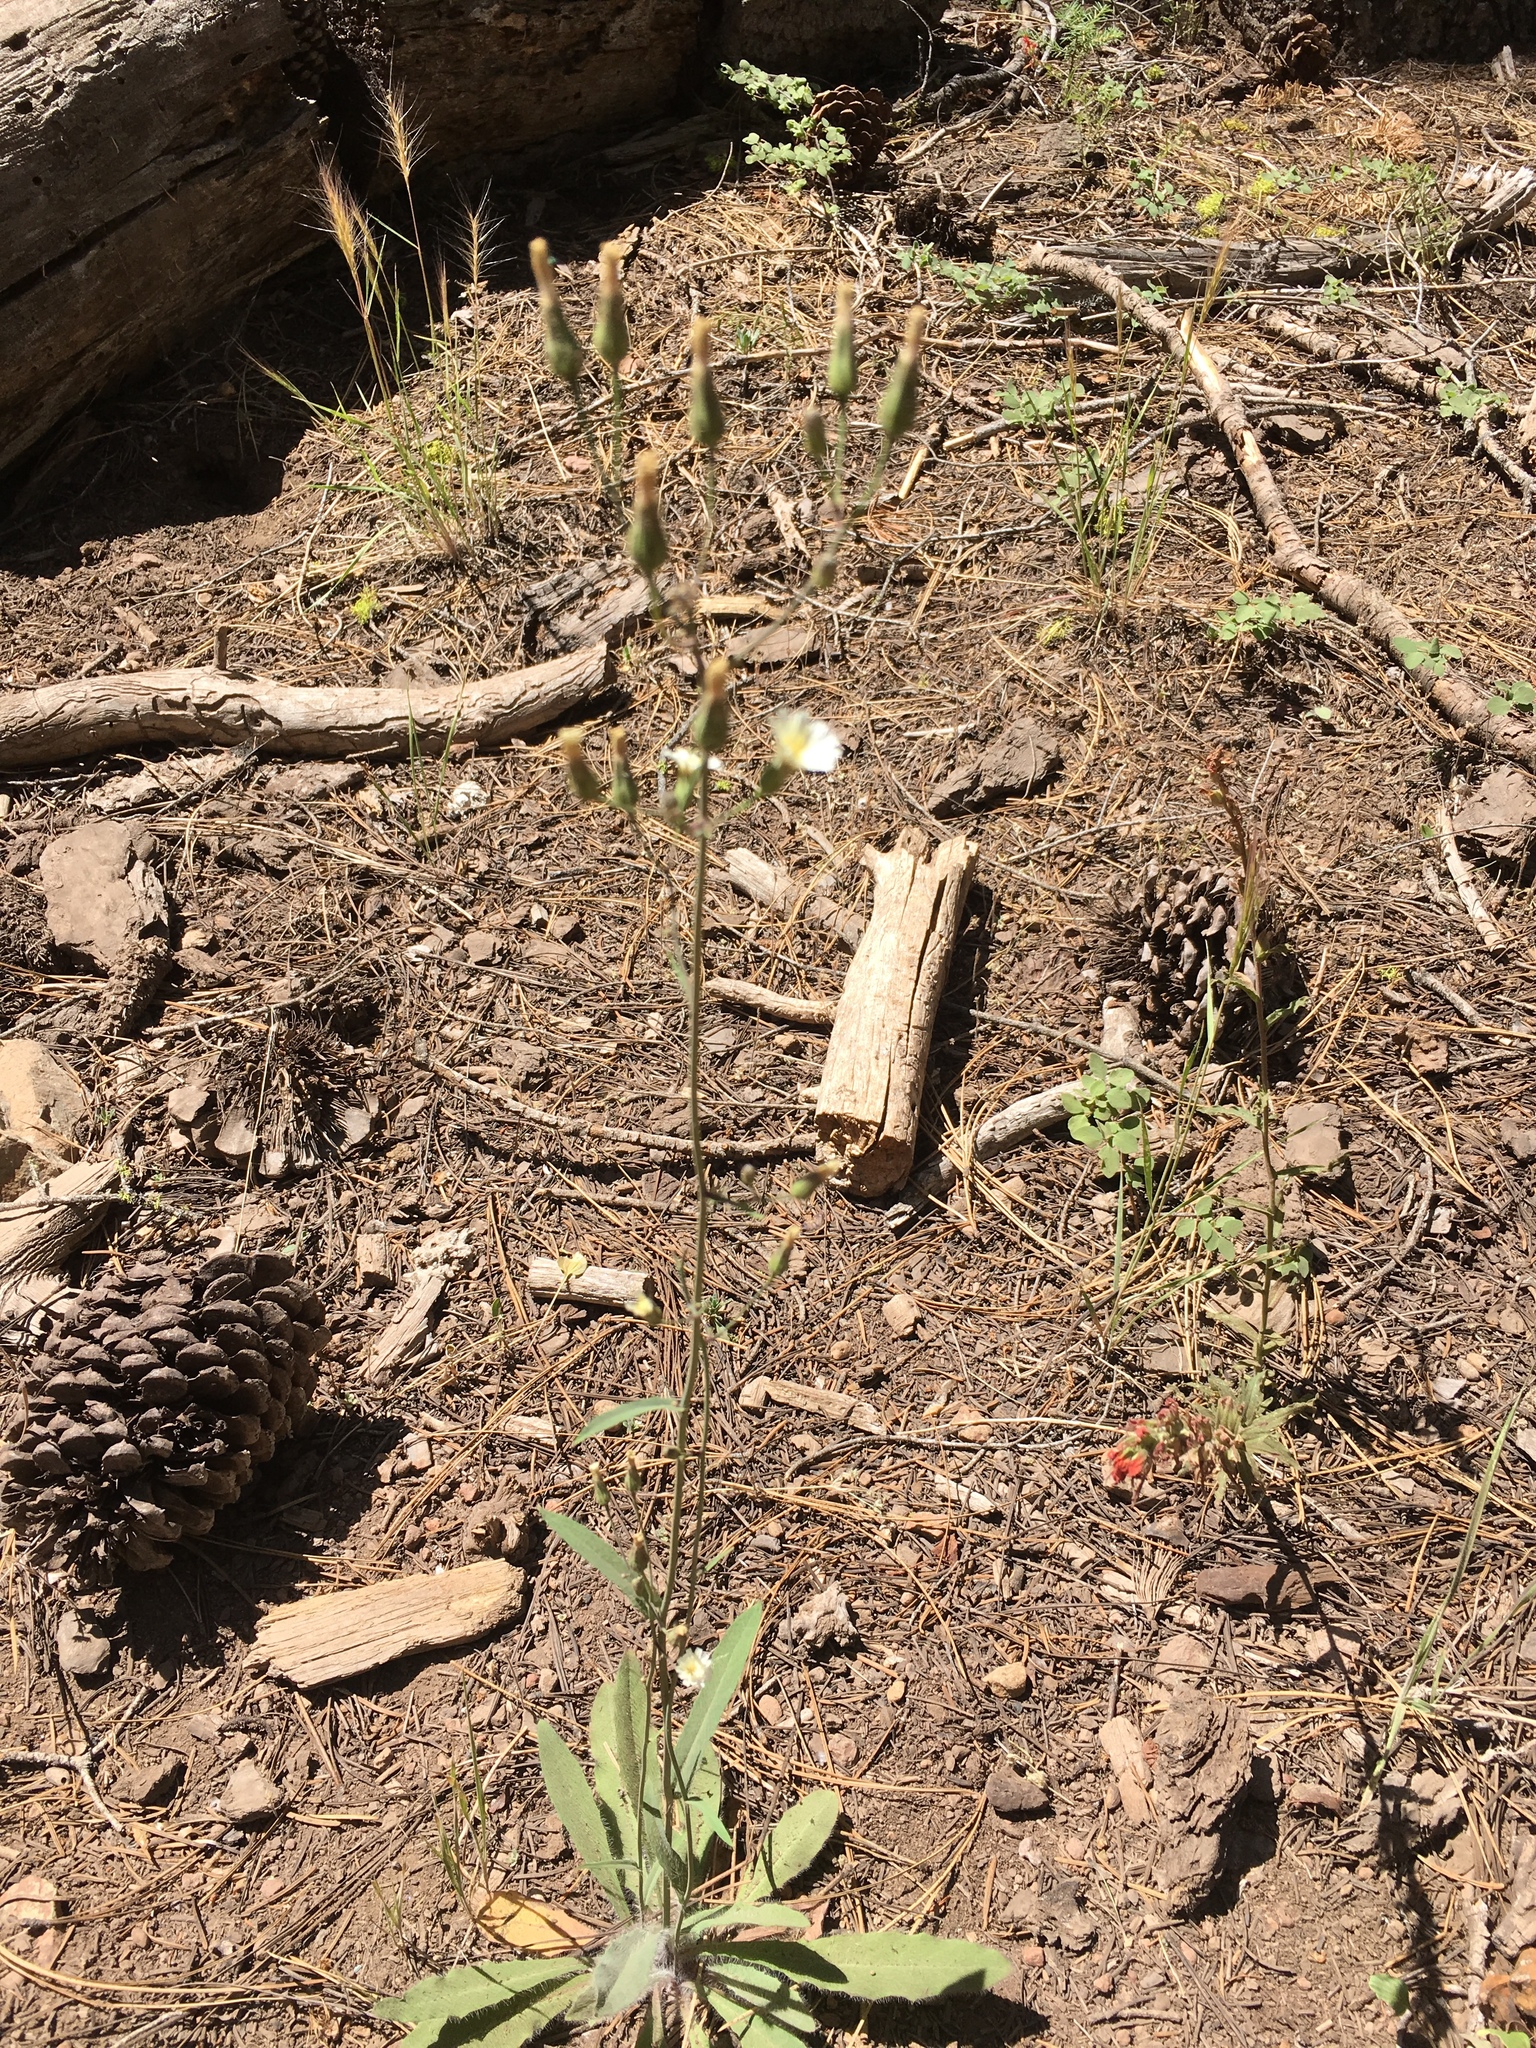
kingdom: Plantae
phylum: Tracheophyta
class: Magnoliopsida
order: Asterales
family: Asteraceae
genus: Hieracium
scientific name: Hieracium albiflorum
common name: White hawkweed
